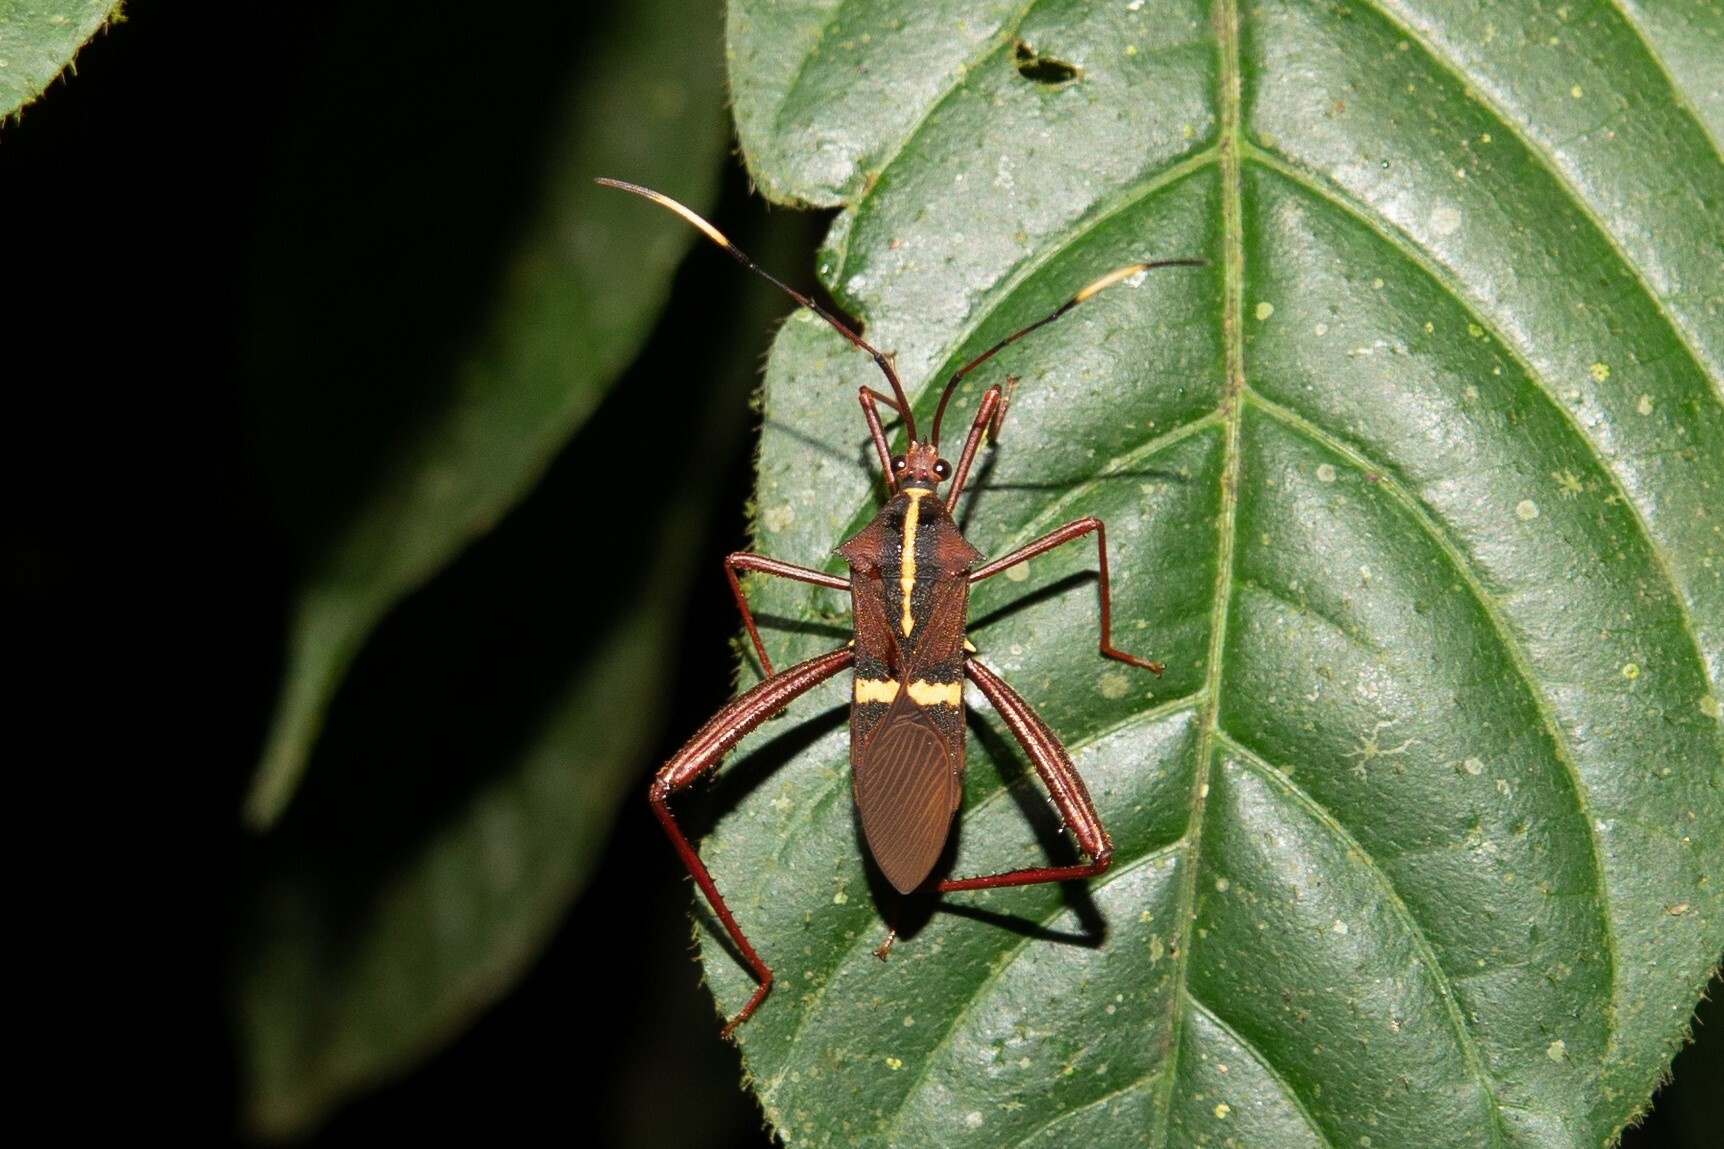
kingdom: Animalia
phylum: Arthropoda
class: Insecta
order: Hemiptera
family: Coreidae
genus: Salapia
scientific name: Salapia signata
